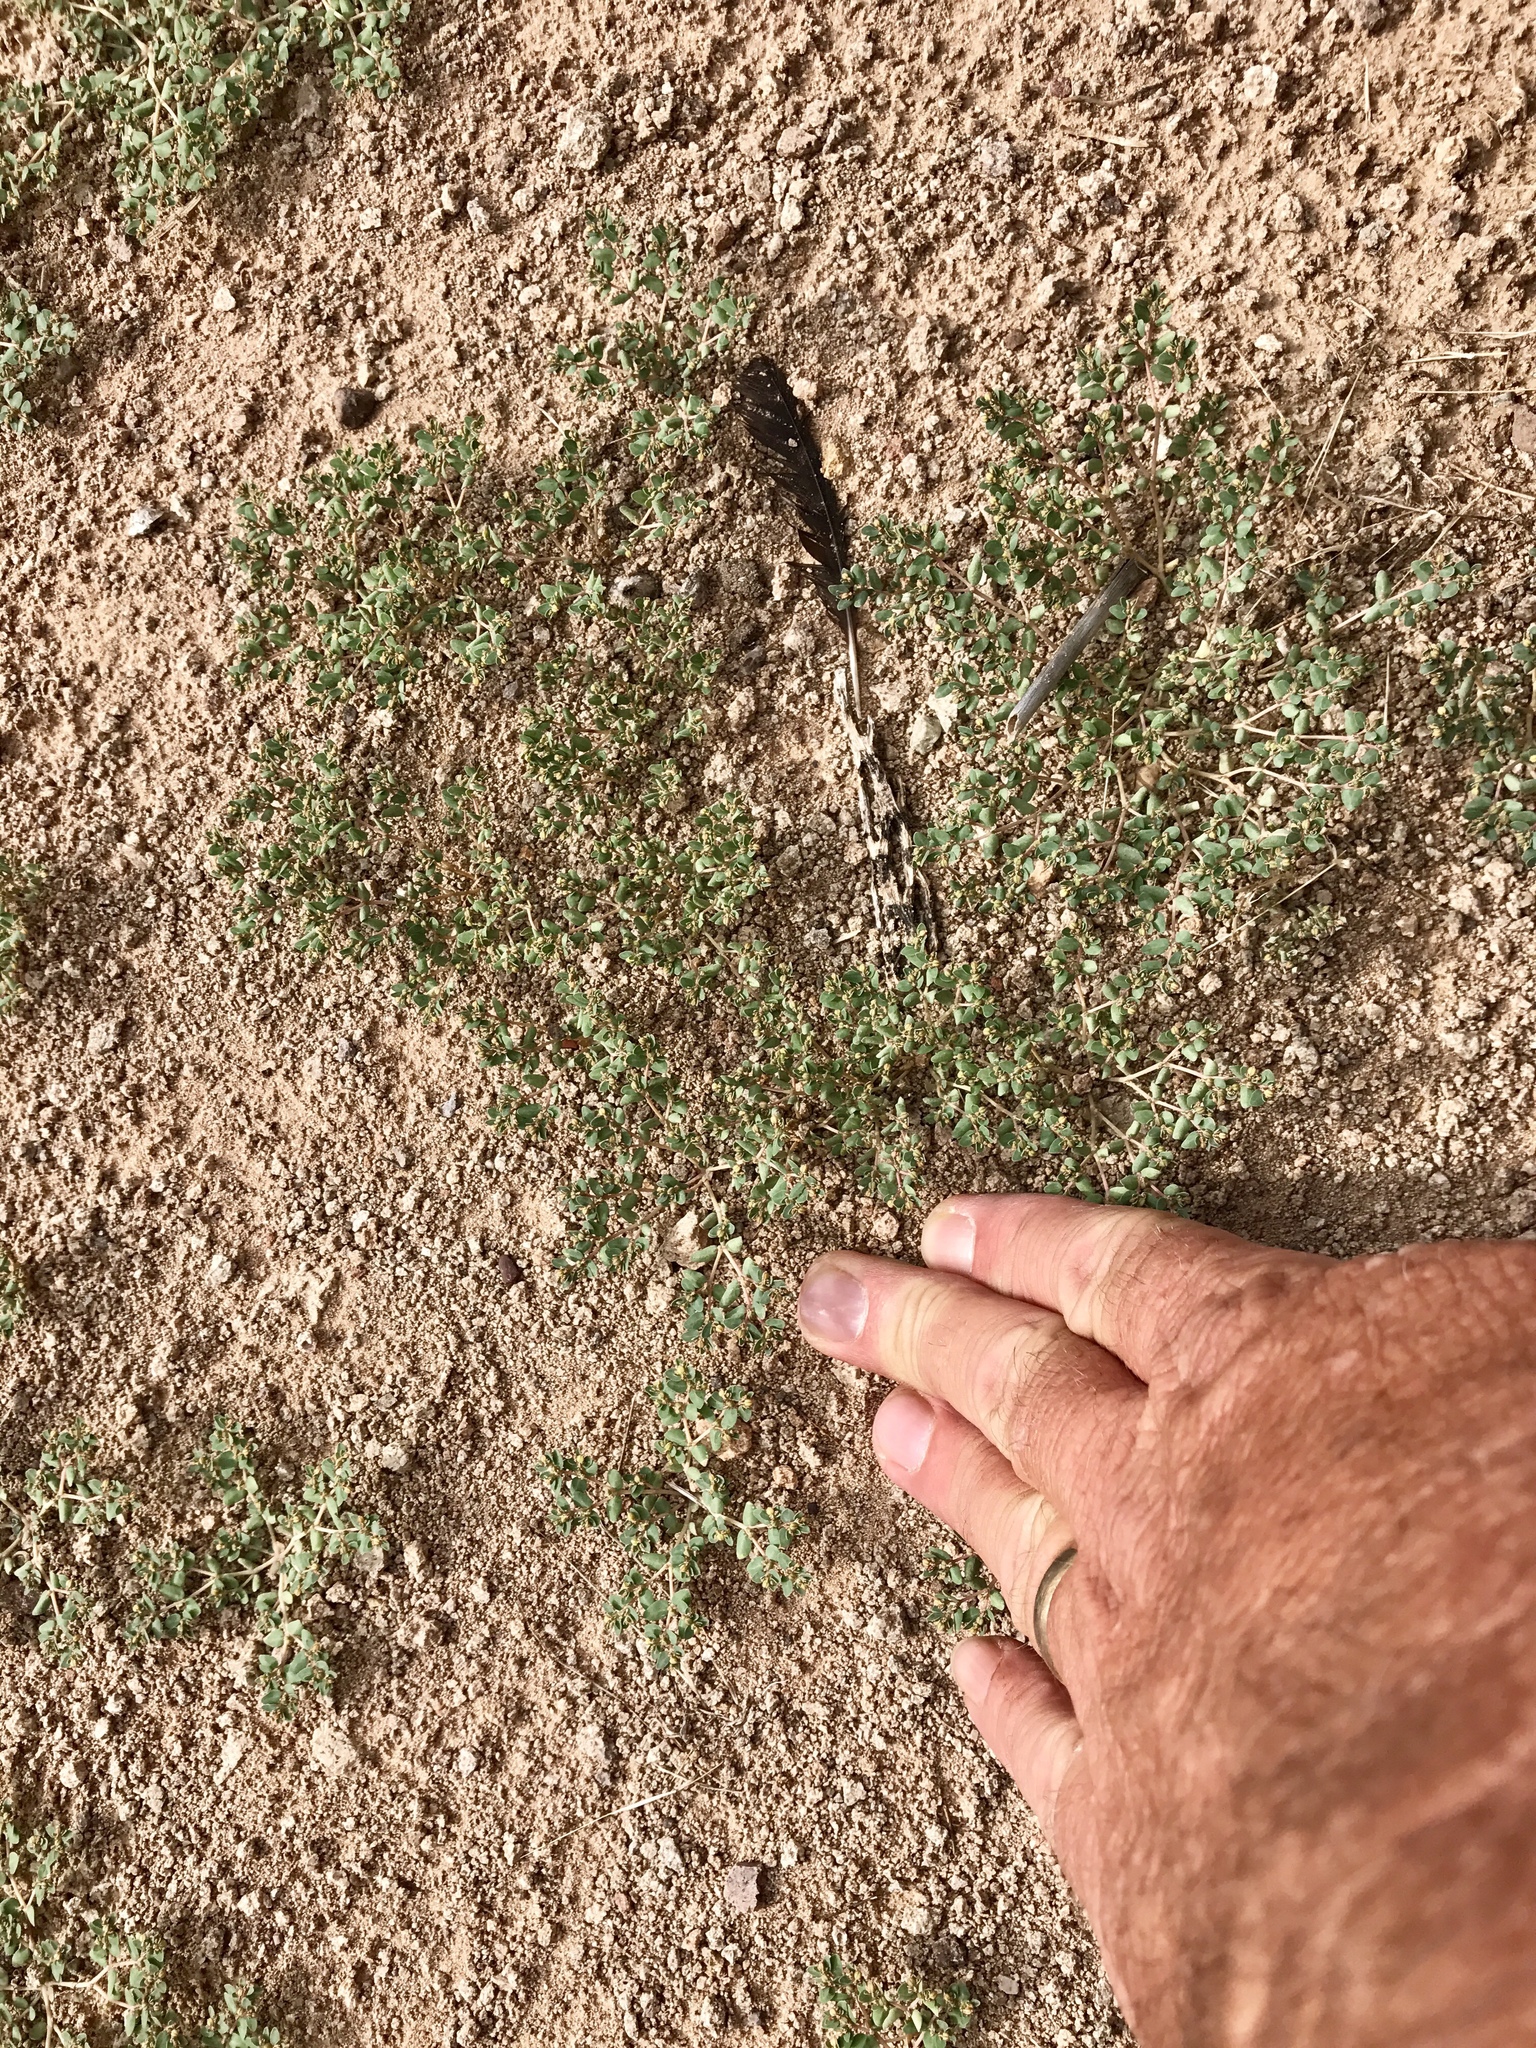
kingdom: Plantae
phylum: Tracheophyta
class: Magnoliopsida
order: Malpighiales
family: Euphorbiaceae
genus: Euphorbia
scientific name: Euphorbia micromera
